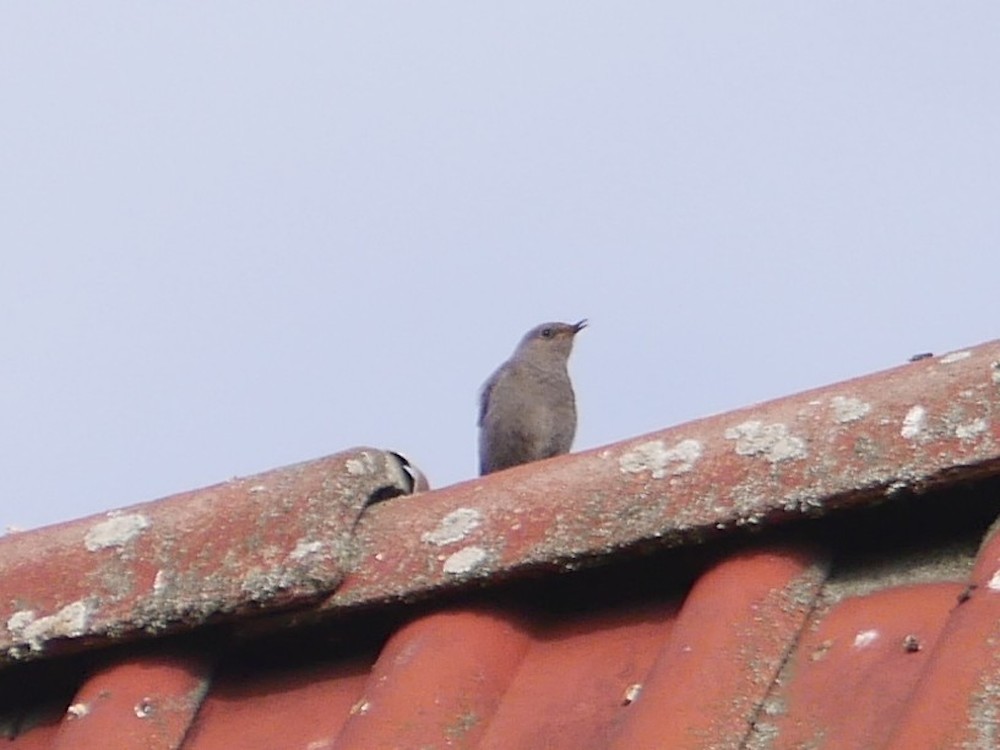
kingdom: Animalia
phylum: Chordata
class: Aves
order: Passeriformes
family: Muscicapidae
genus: Phoenicurus
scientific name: Phoenicurus ochruros
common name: Black redstart
